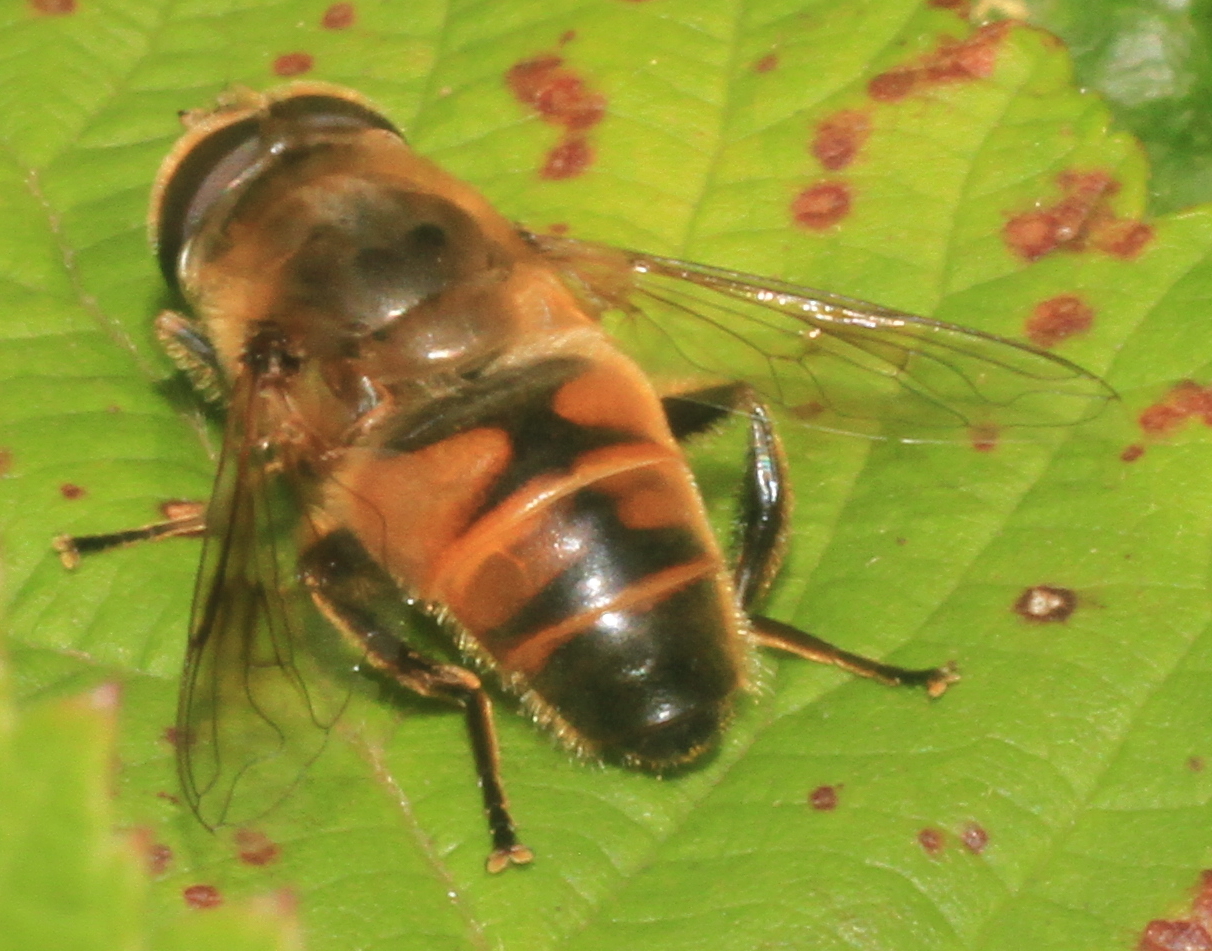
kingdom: Animalia
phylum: Arthropoda
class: Insecta
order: Diptera
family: Syrphidae
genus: Eristalis
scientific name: Eristalis tenax
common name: Drone fly
